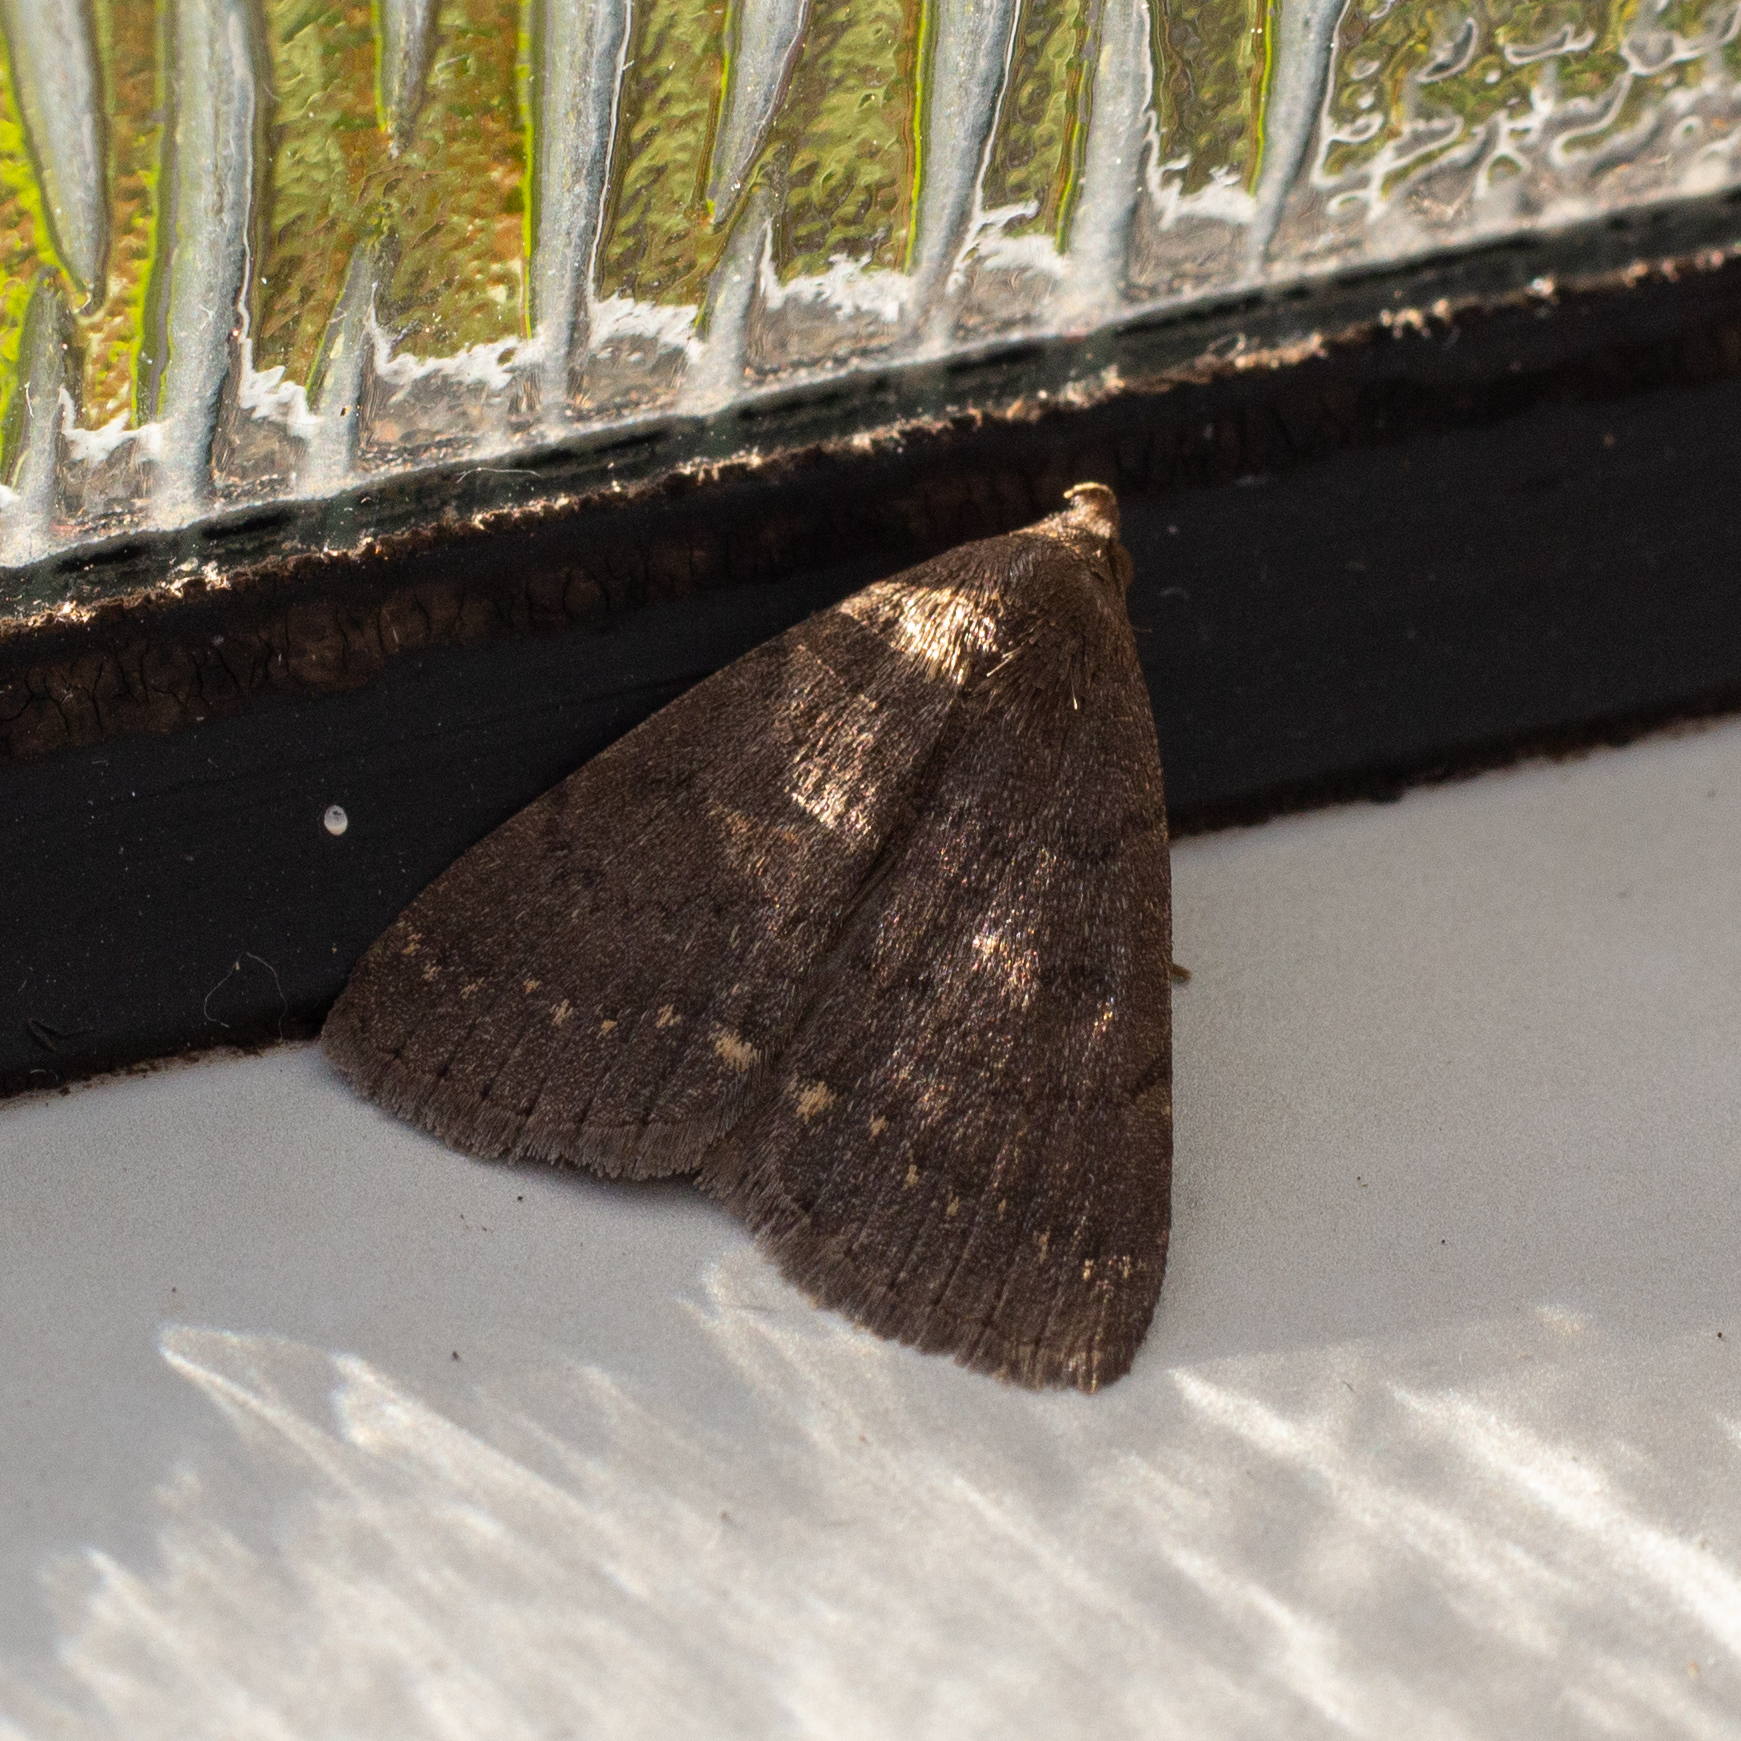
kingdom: Animalia
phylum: Arthropoda
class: Insecta
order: Lepidoptera
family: Erebidae
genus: Nodaria
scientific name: Nodaria nodosalis
